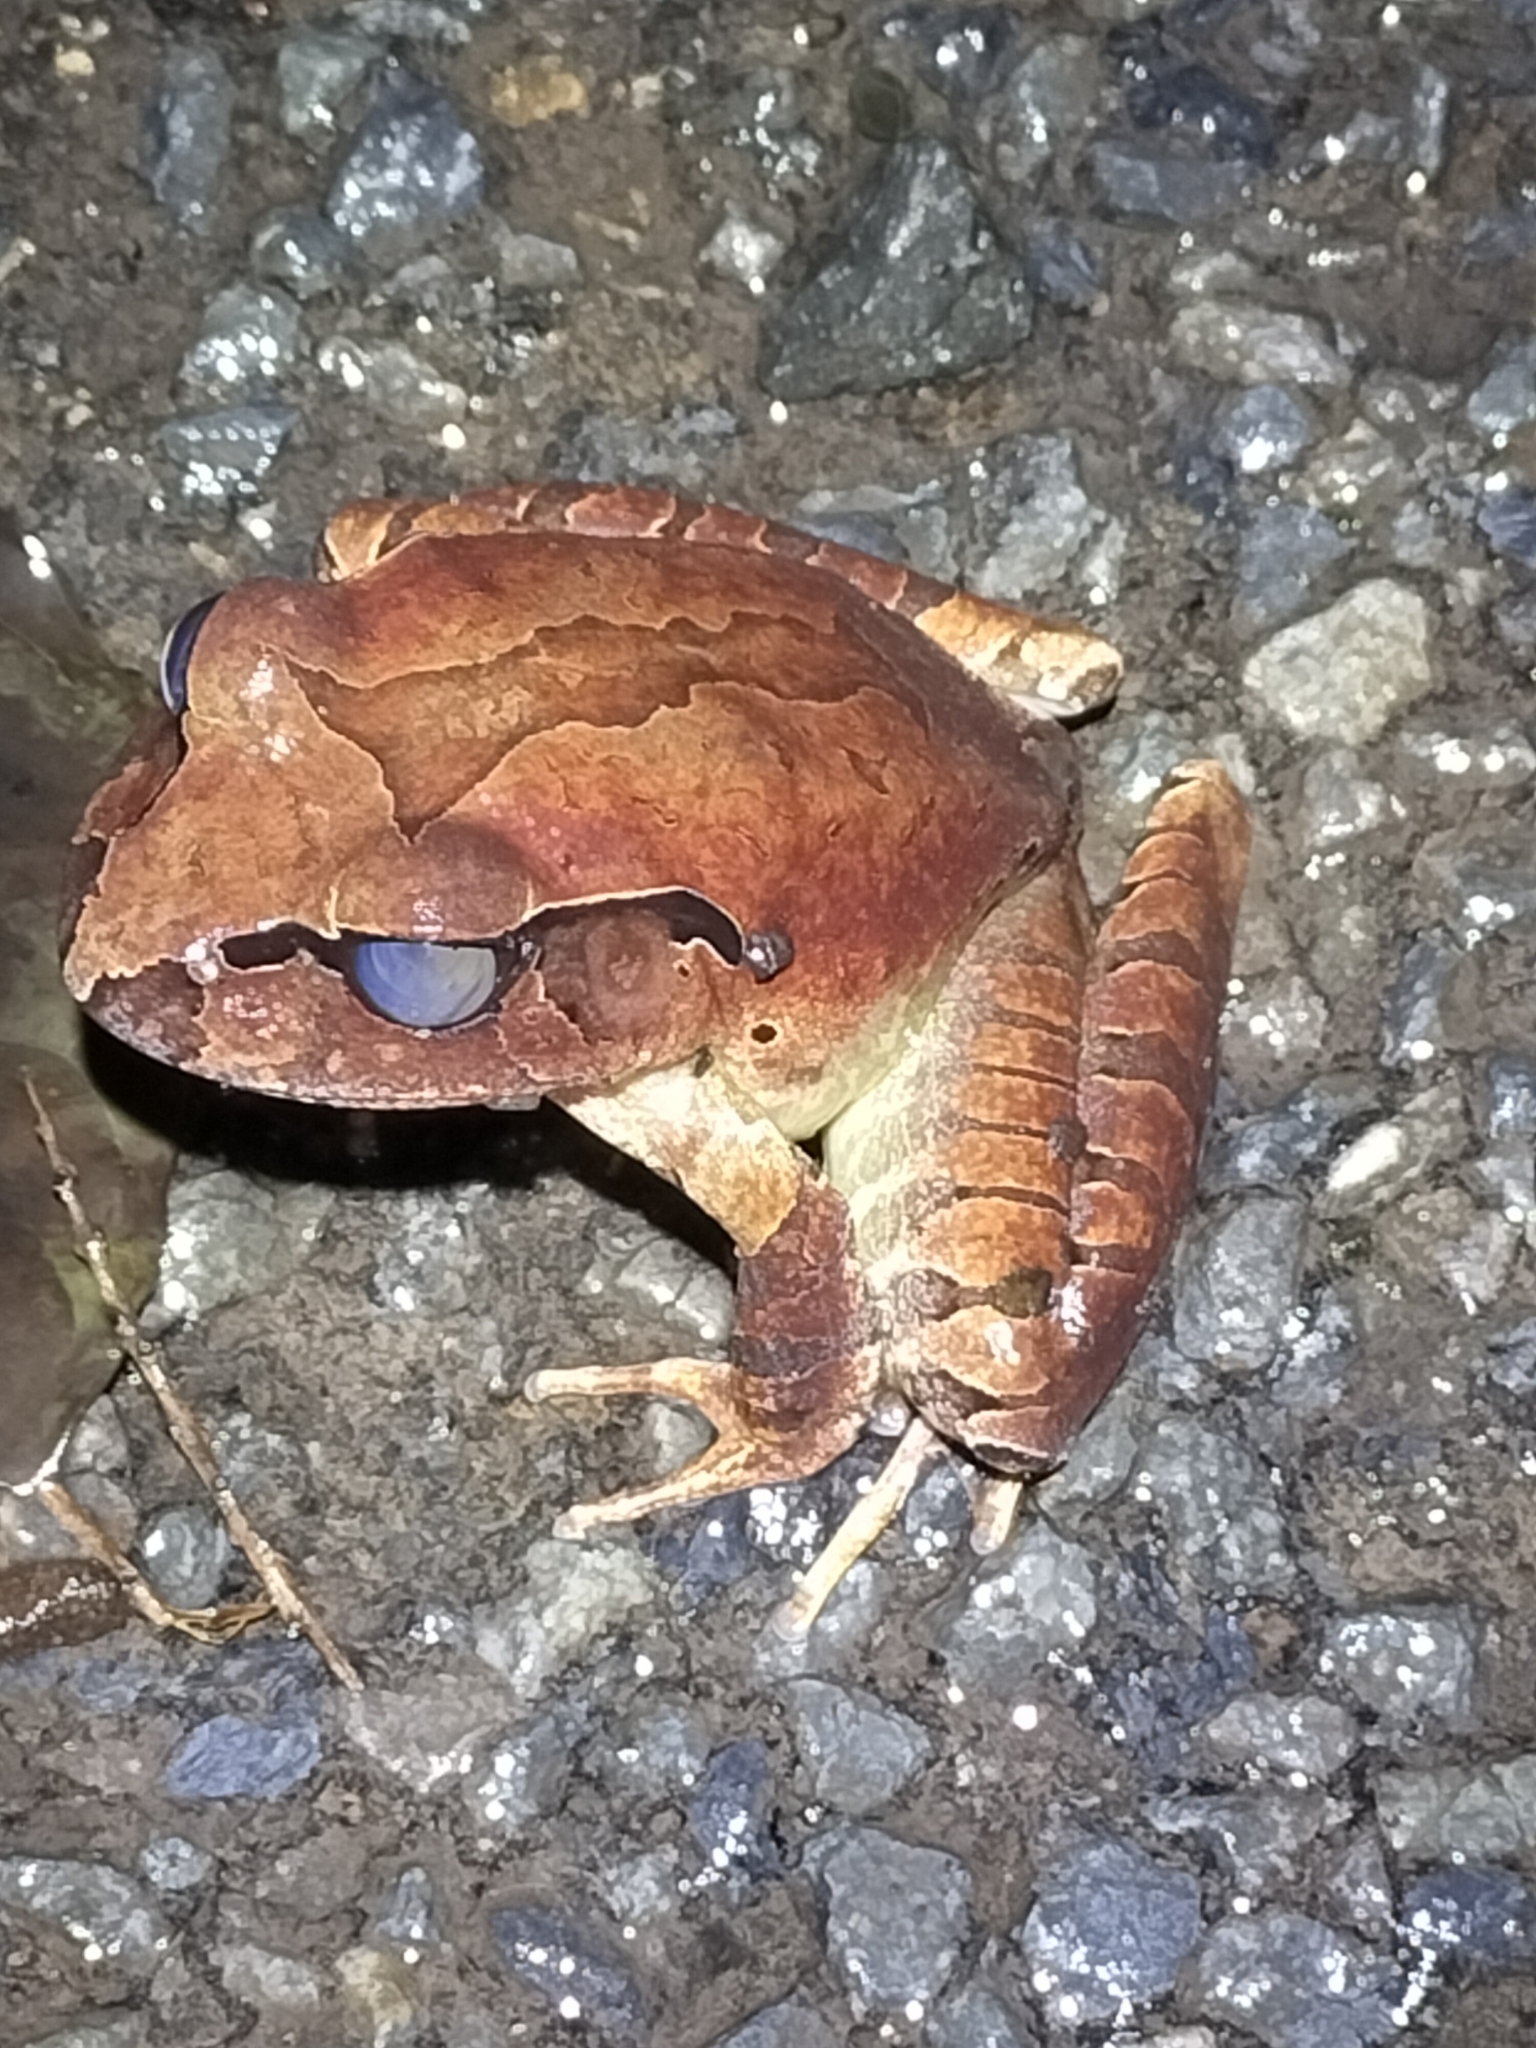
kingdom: Animalia
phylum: Chordata
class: Amphibia
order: Anura
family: Myobatrachidae
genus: Mixophyes
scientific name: Mixophyes schevilli
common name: Northern barred frog
